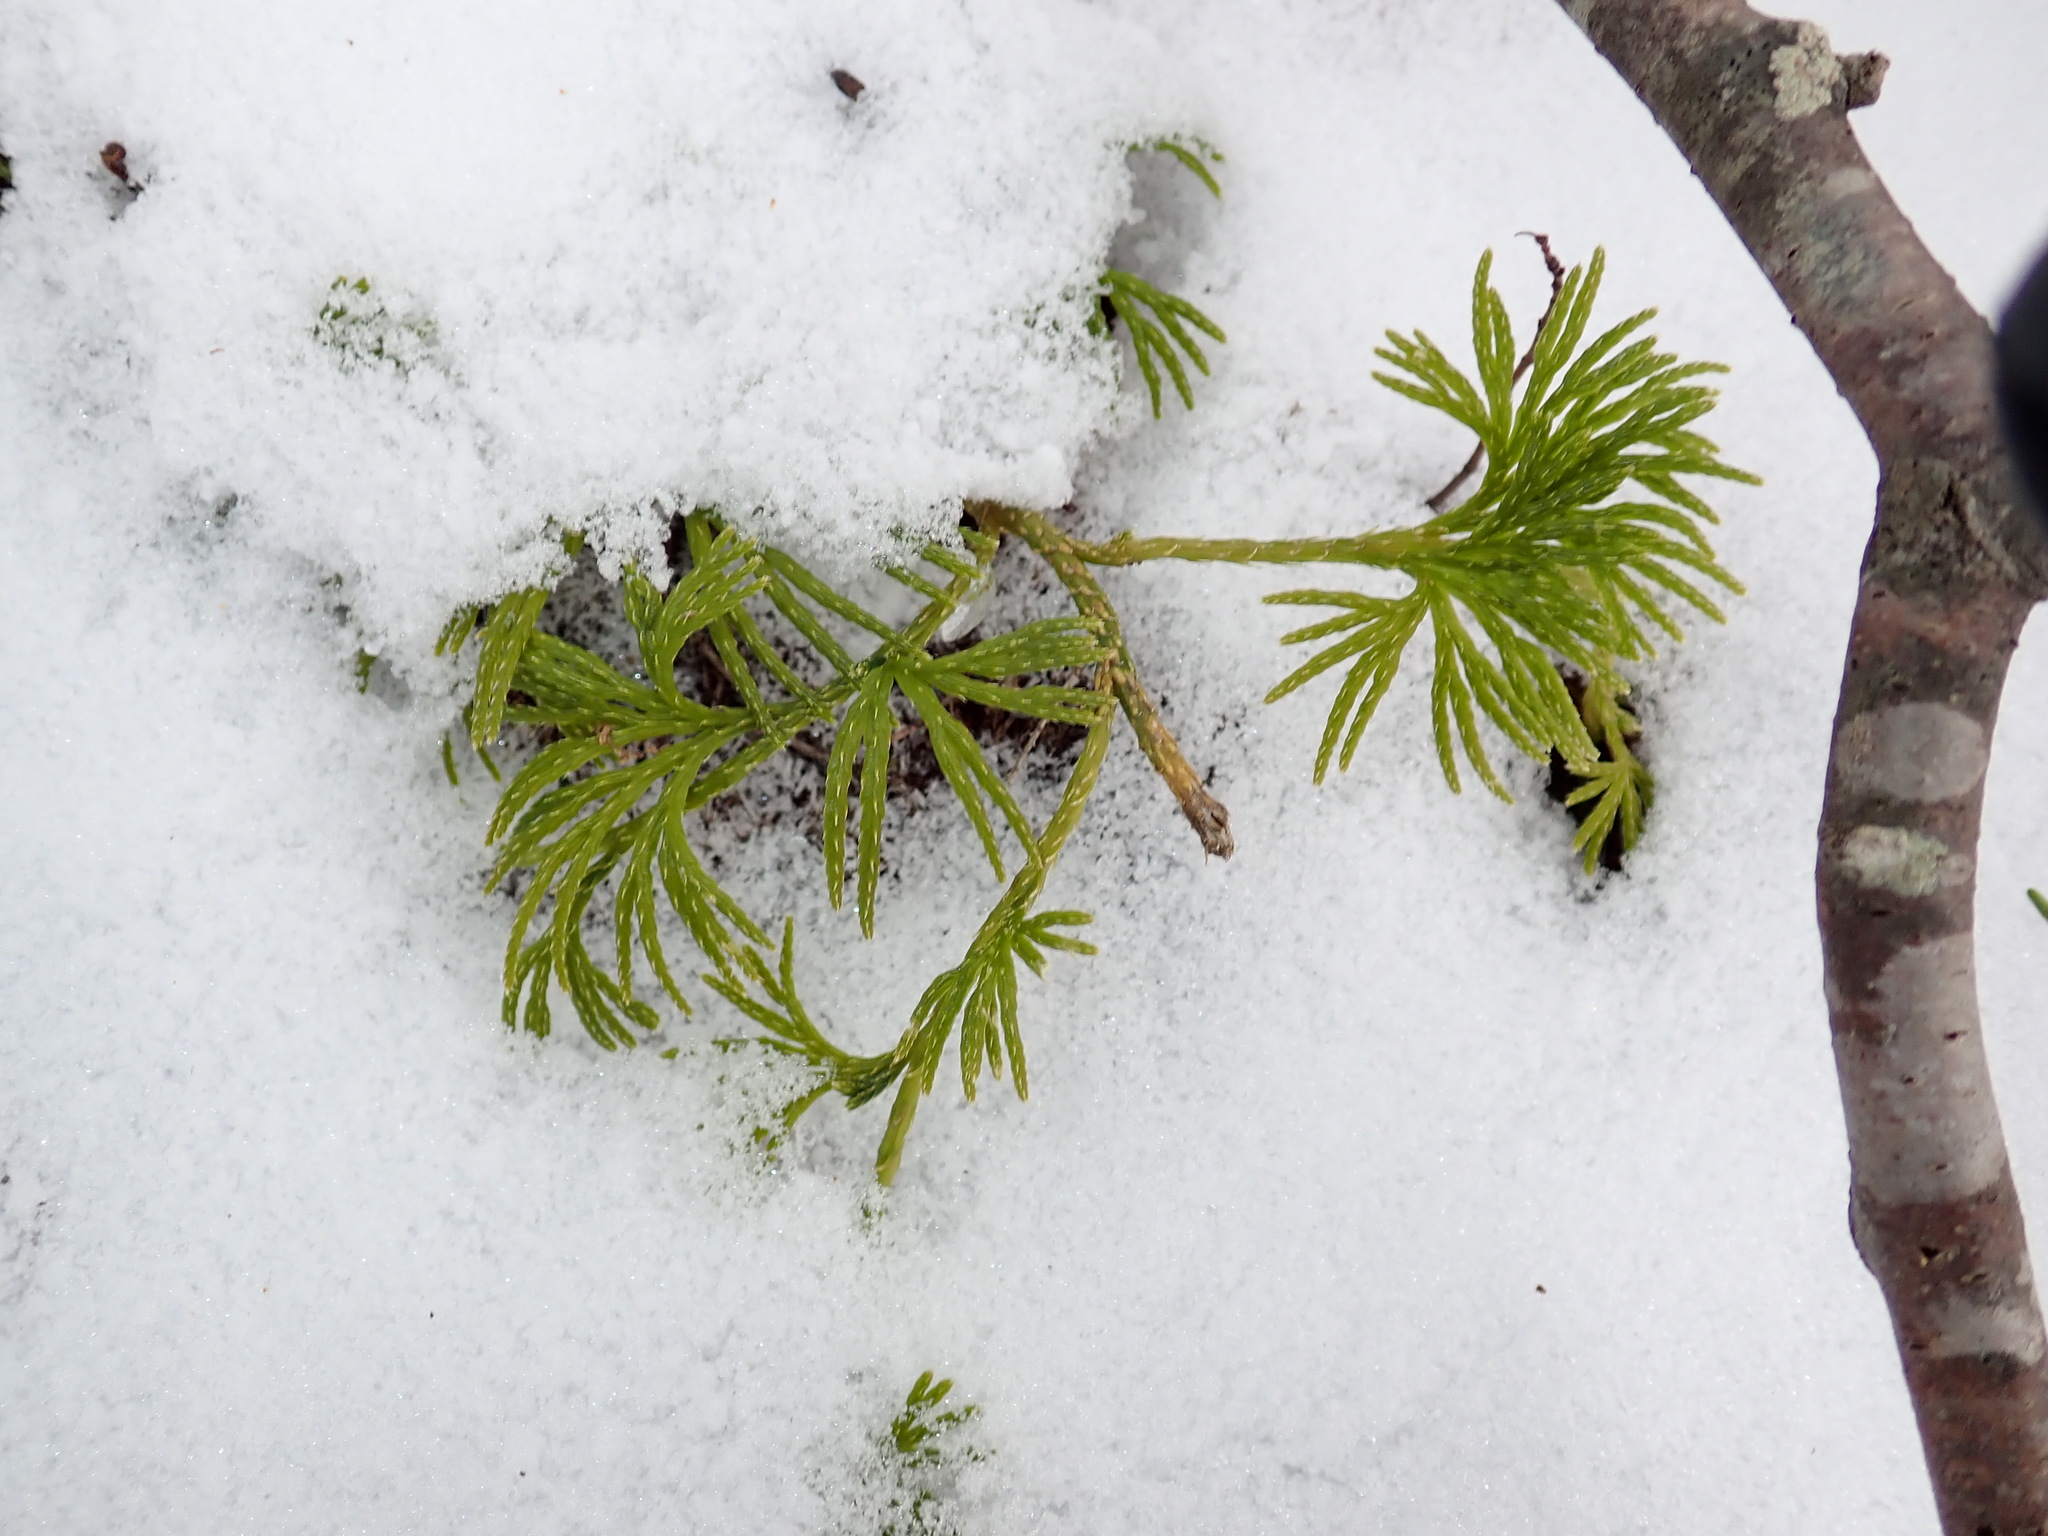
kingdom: Plantae
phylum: Tracheophyta
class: Lycopodiopsida
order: Lycopodiales
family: Lycopodiaceae
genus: Diphasiastrum
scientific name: Diphasiastrum digitatum
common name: Southern running-pine
